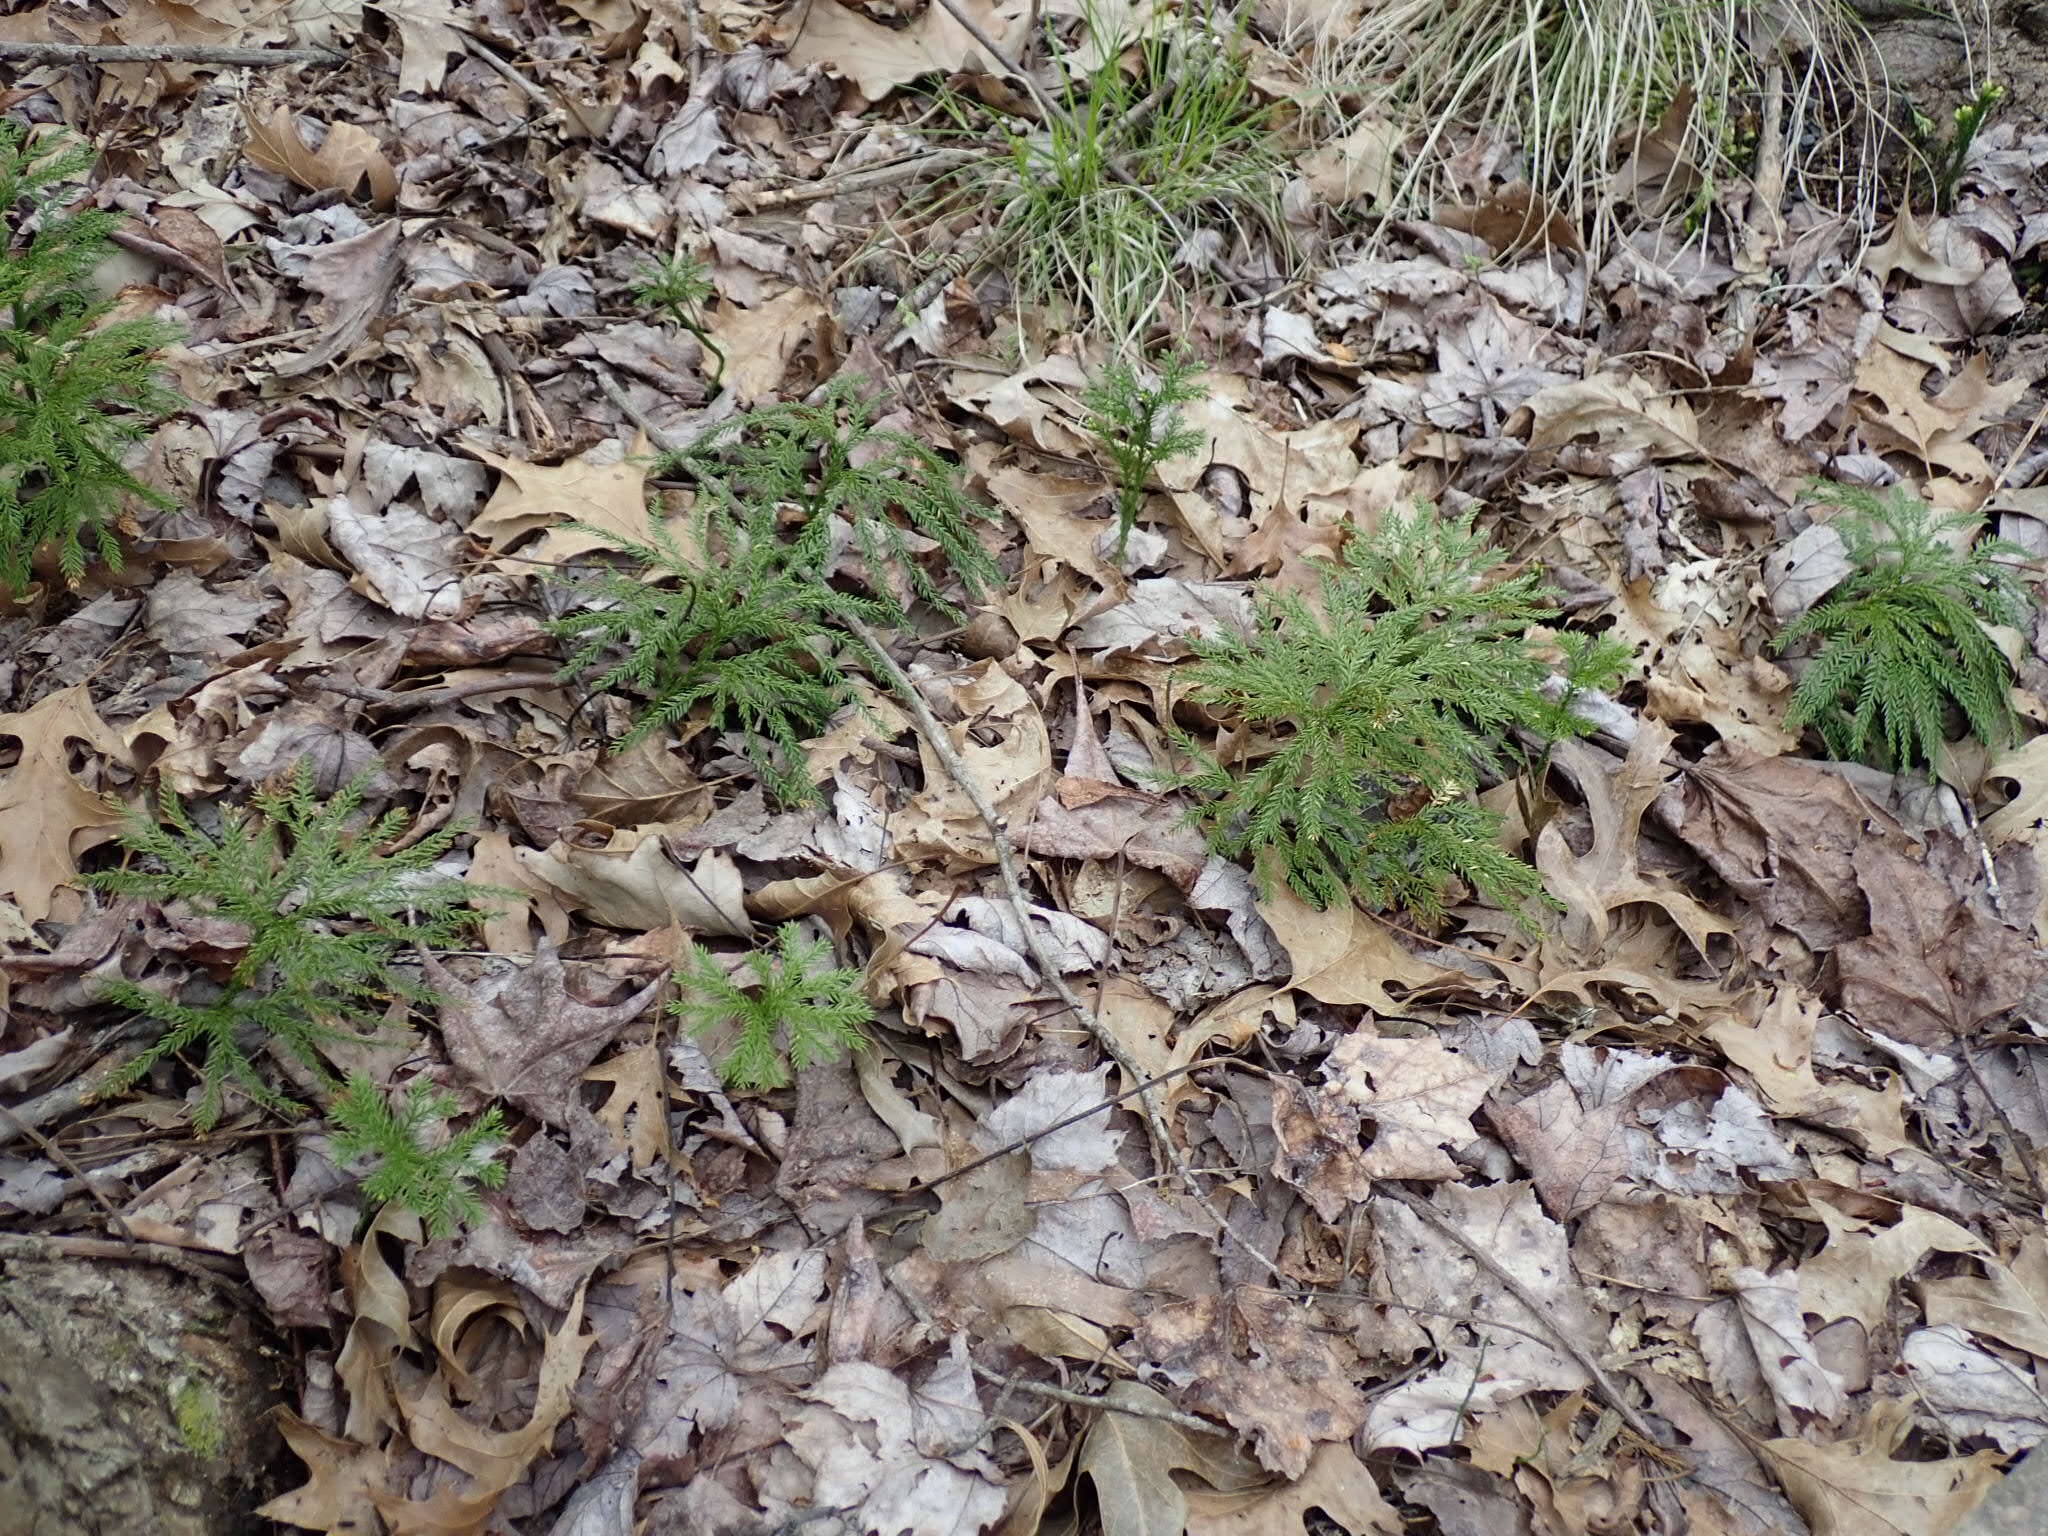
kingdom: Plantae
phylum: Tracheophyta
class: Lycopodiopsida
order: Lycopodiales
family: Lycopodiaceae
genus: Dendrolycopodium
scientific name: Dendrolycopodium obscurum
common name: Common ground-pine
